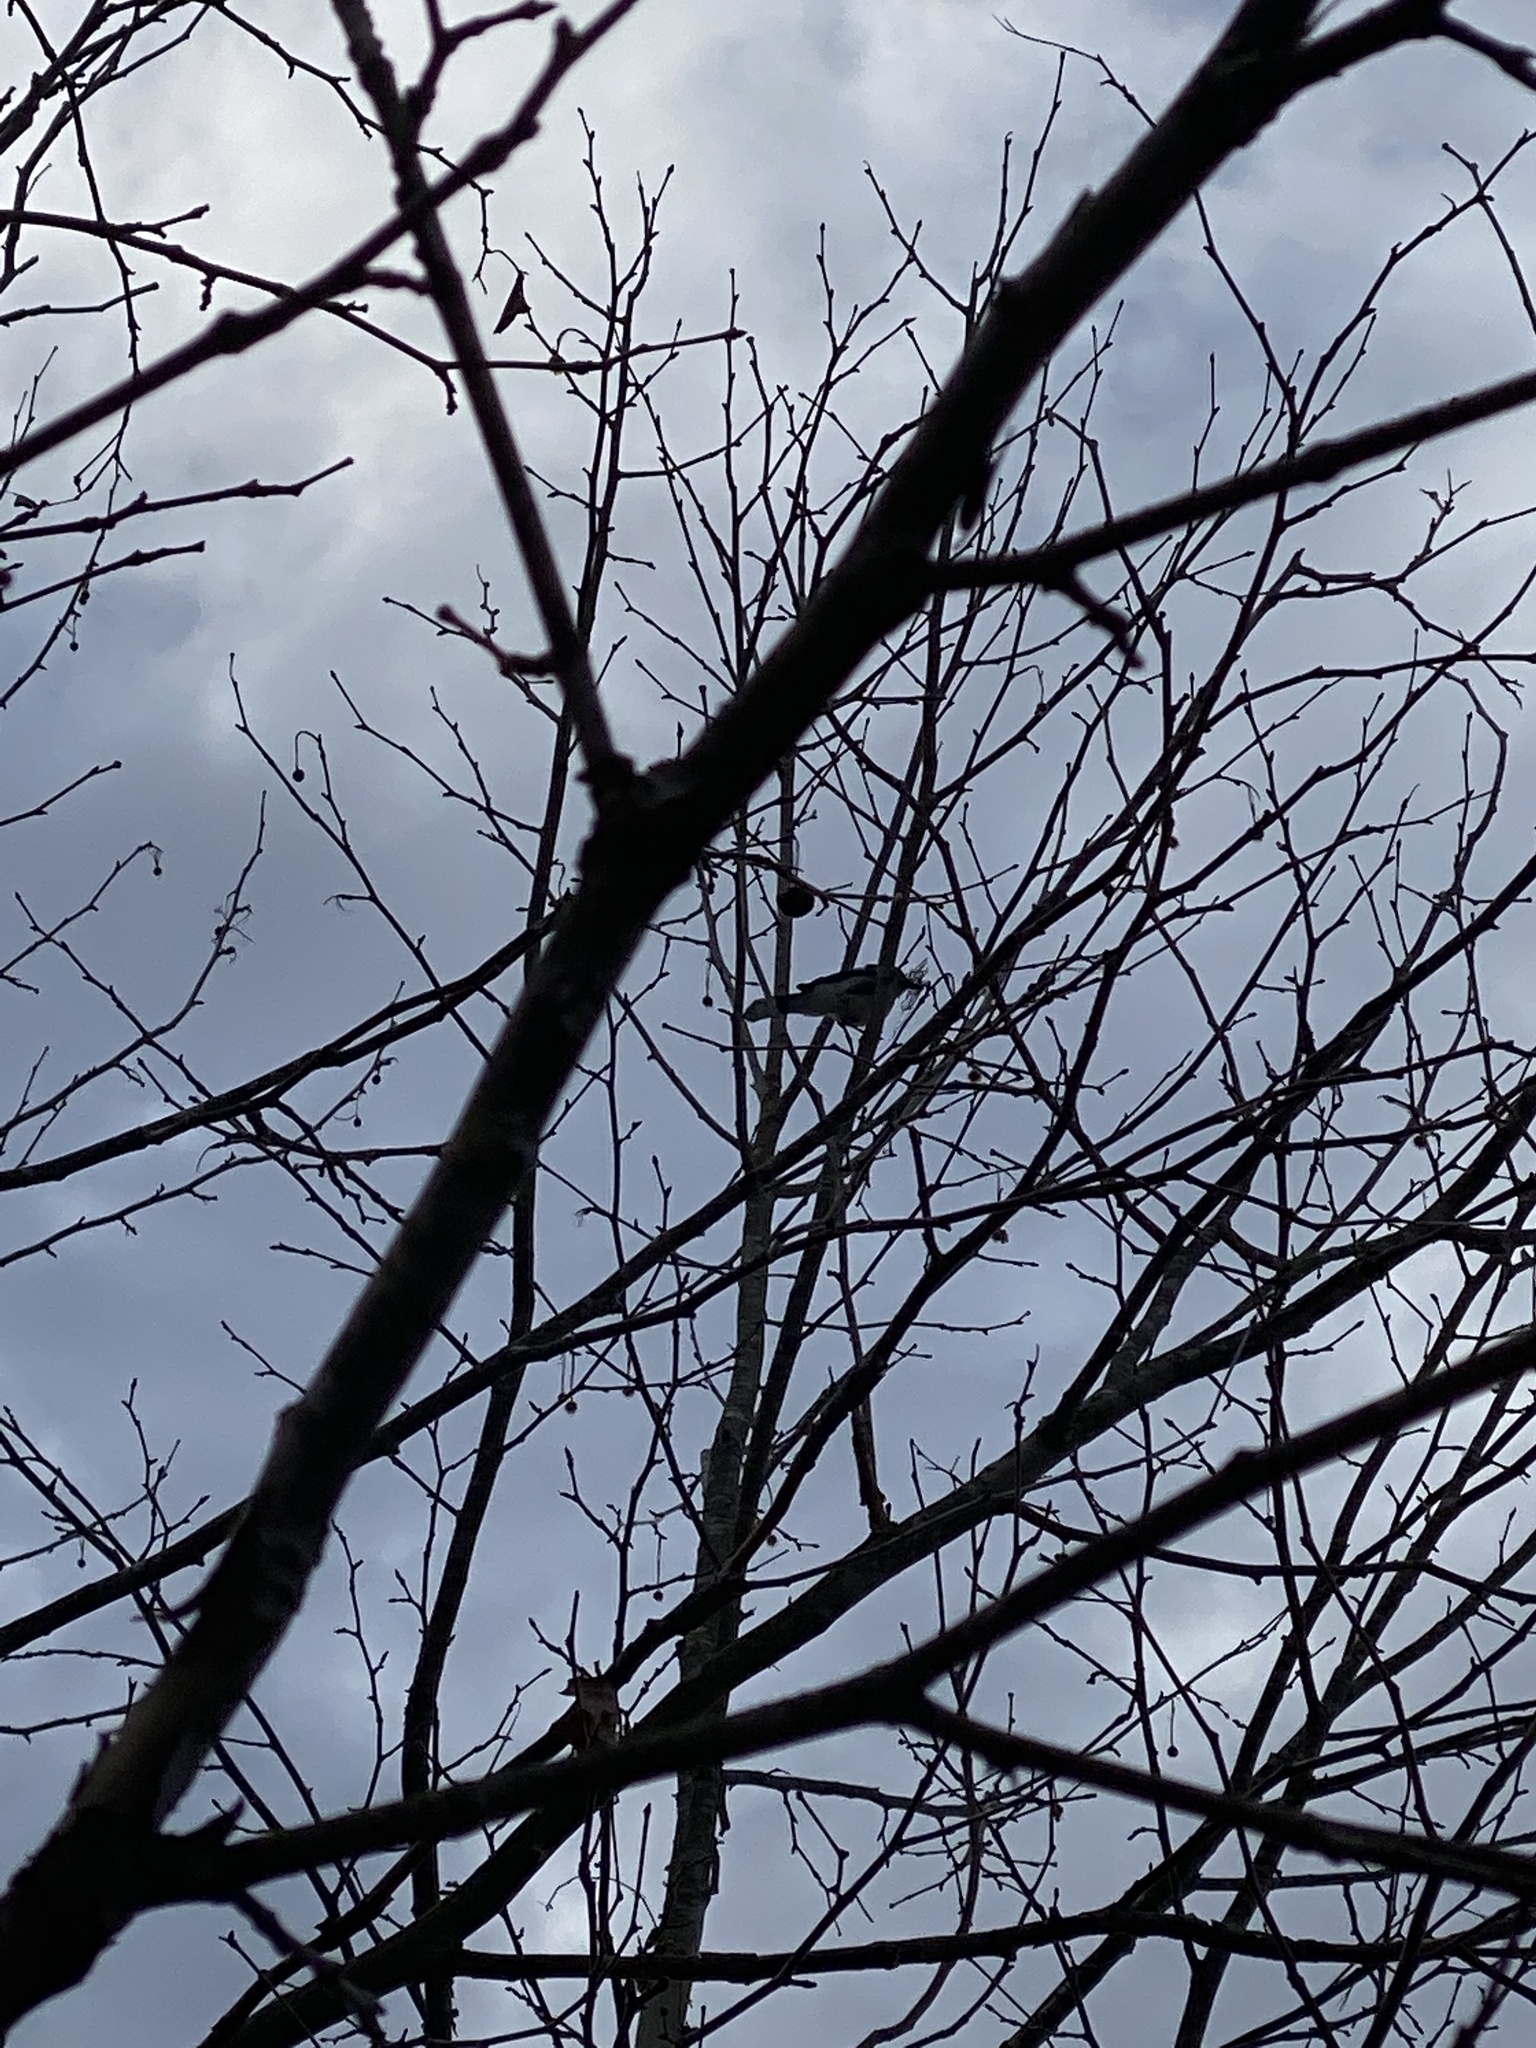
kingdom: Animalia
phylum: Chordata
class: Aves
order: Passeriformes
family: Corvidae
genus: Cyanocitta
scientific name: Cyanocitta cristata
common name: Blue jay
